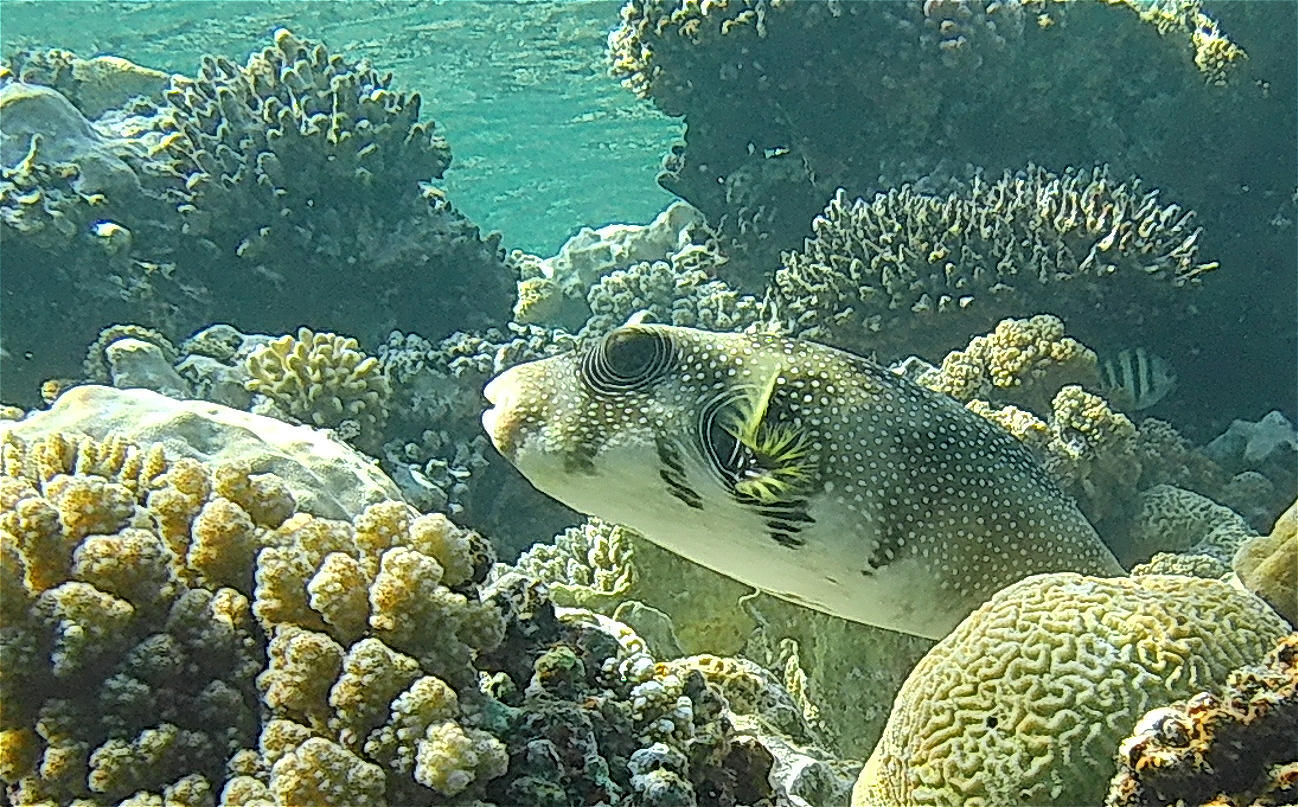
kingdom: Animalia
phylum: Chordata
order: Tetraodontiformes
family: Tetraodontidae
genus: Arothron
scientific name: Arothron hispidus
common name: Stripebelly puffer
